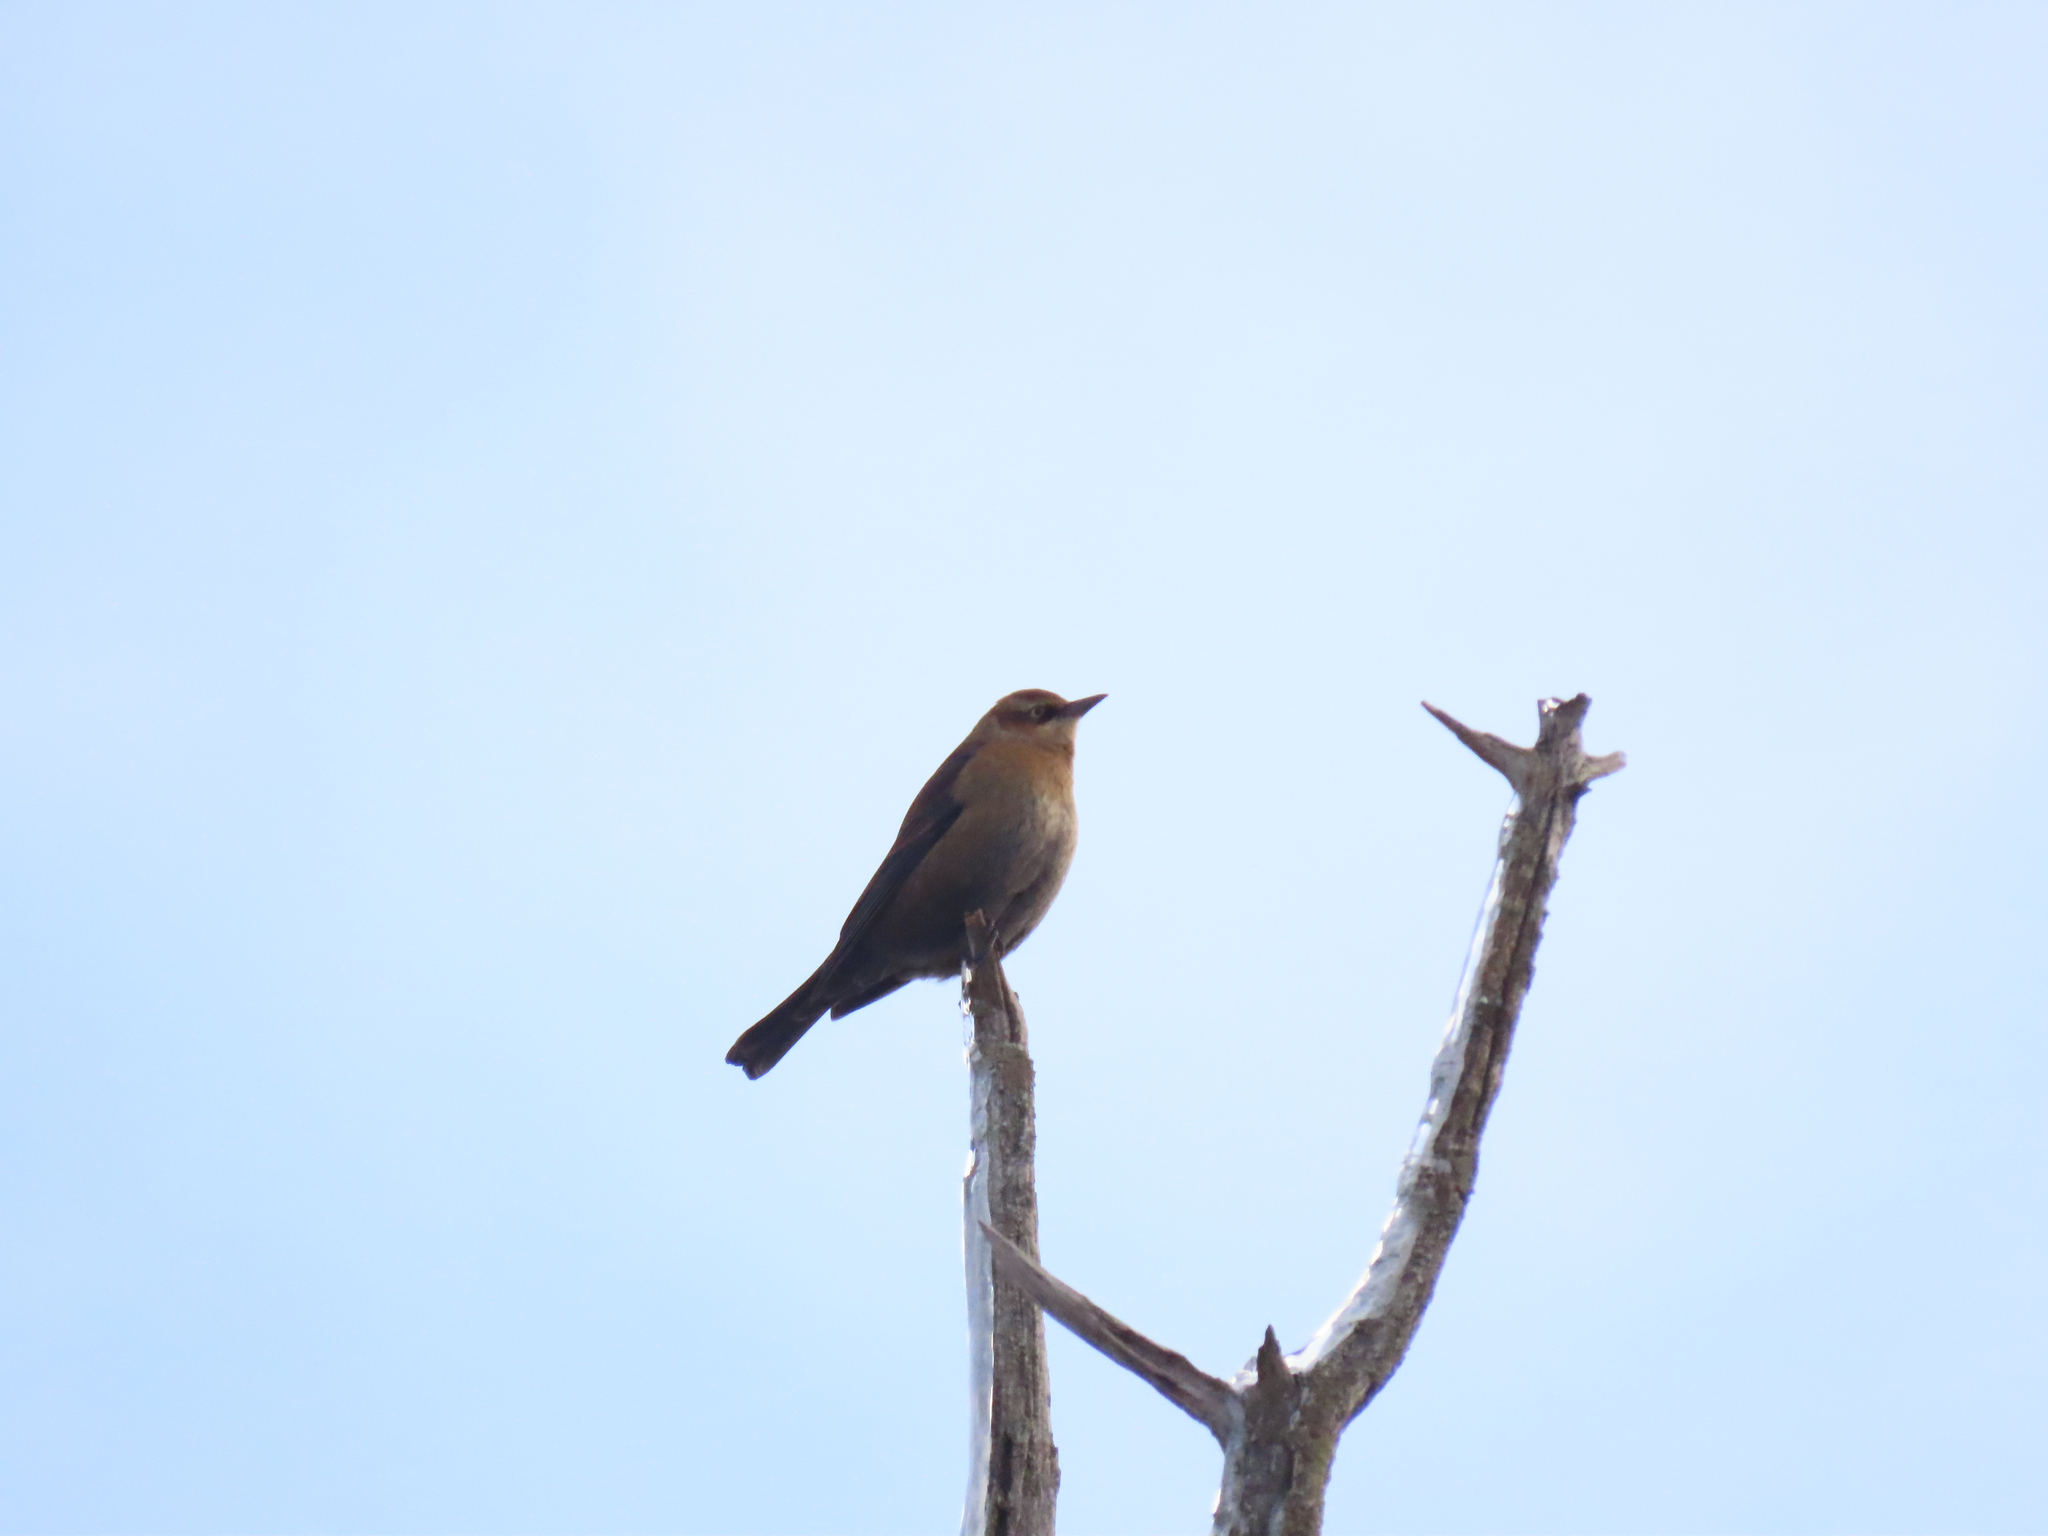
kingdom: Animalia
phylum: Chordata
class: Aves
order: Passeriformes
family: Icteridae
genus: Euphagus
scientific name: Euphagus carolinus
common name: Rusty blackbird
